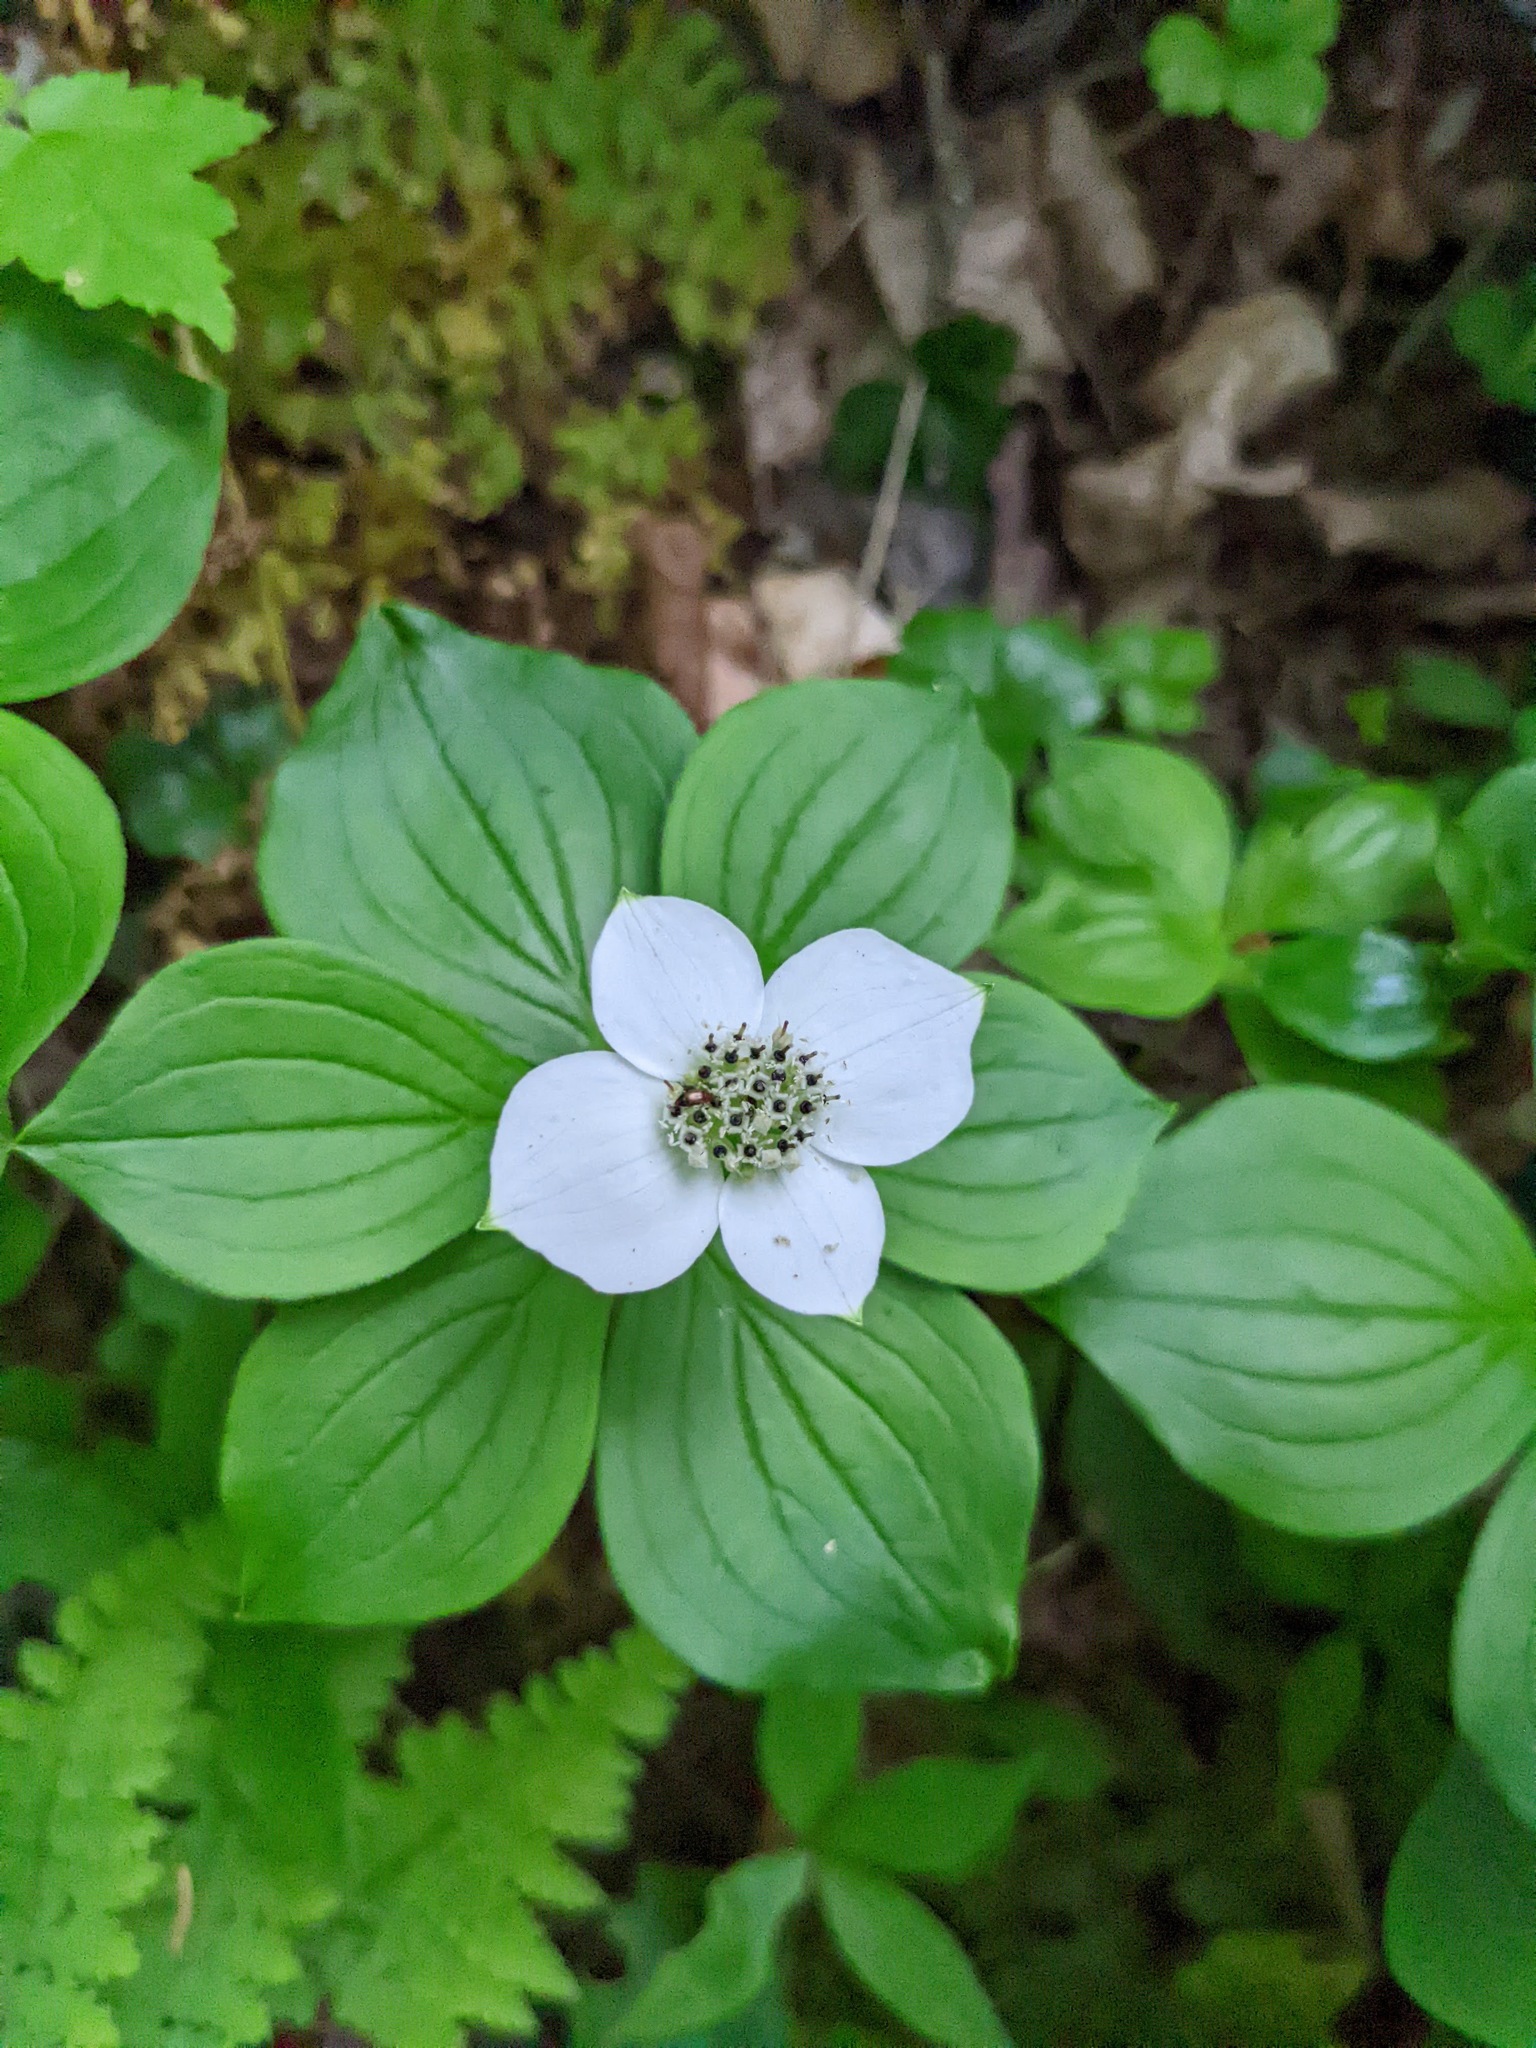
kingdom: Plantae
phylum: Tracheophyta
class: Magnoliopsida
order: Cornales
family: Cornaceae
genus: Cornus
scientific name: Cornus canadensis
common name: Creeping dogwood
